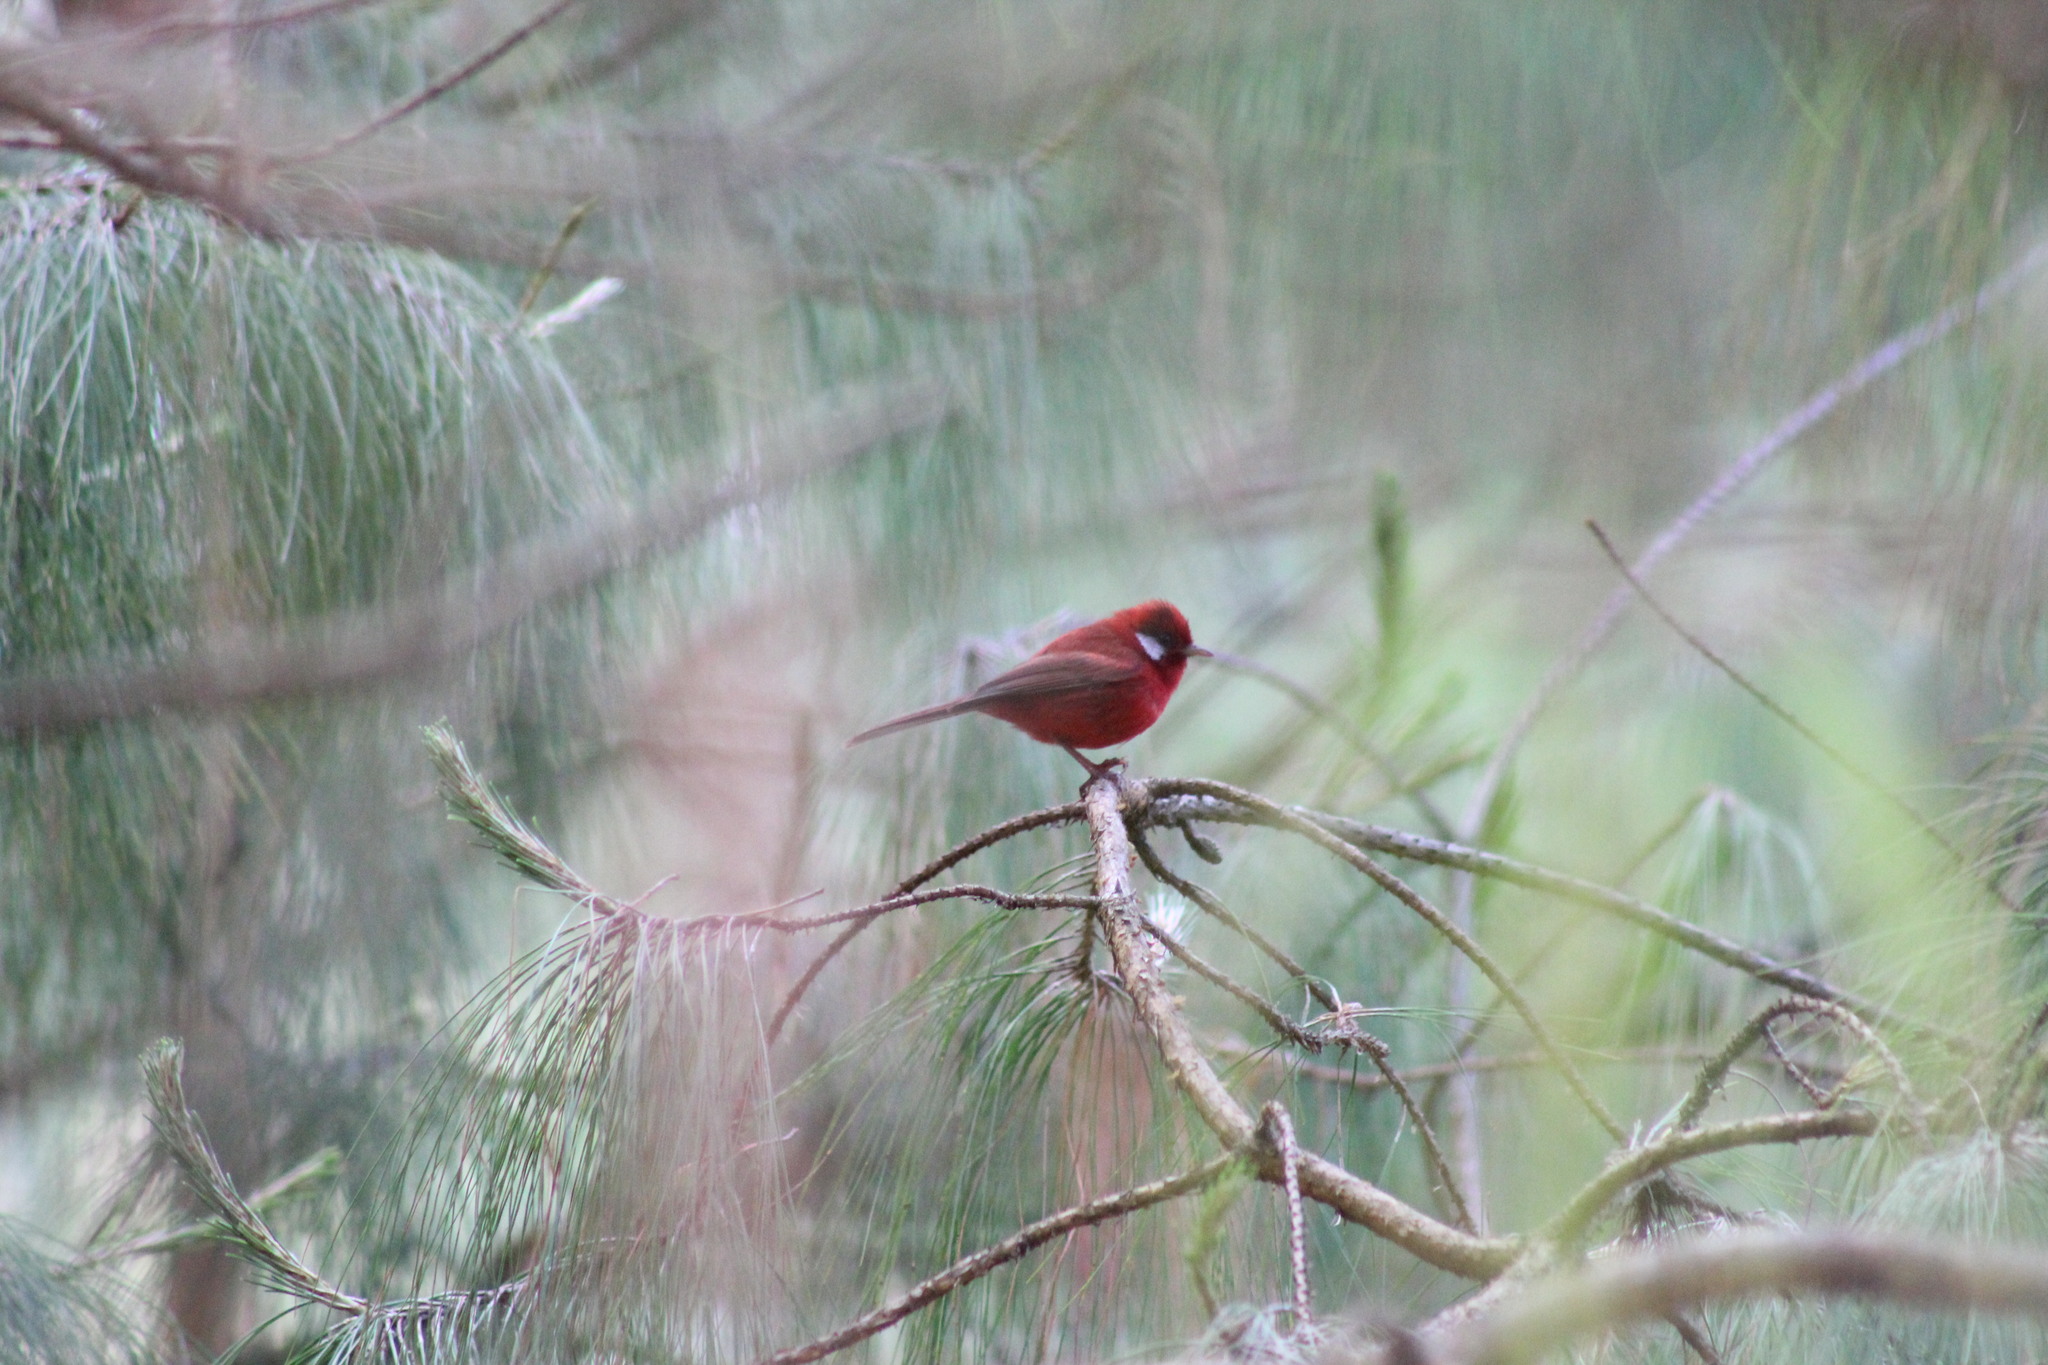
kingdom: Animalia
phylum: Chordata
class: Aves
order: Passeriformes
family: Parulidae
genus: Cardellina
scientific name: Cardellina rubra
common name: Red warbler
